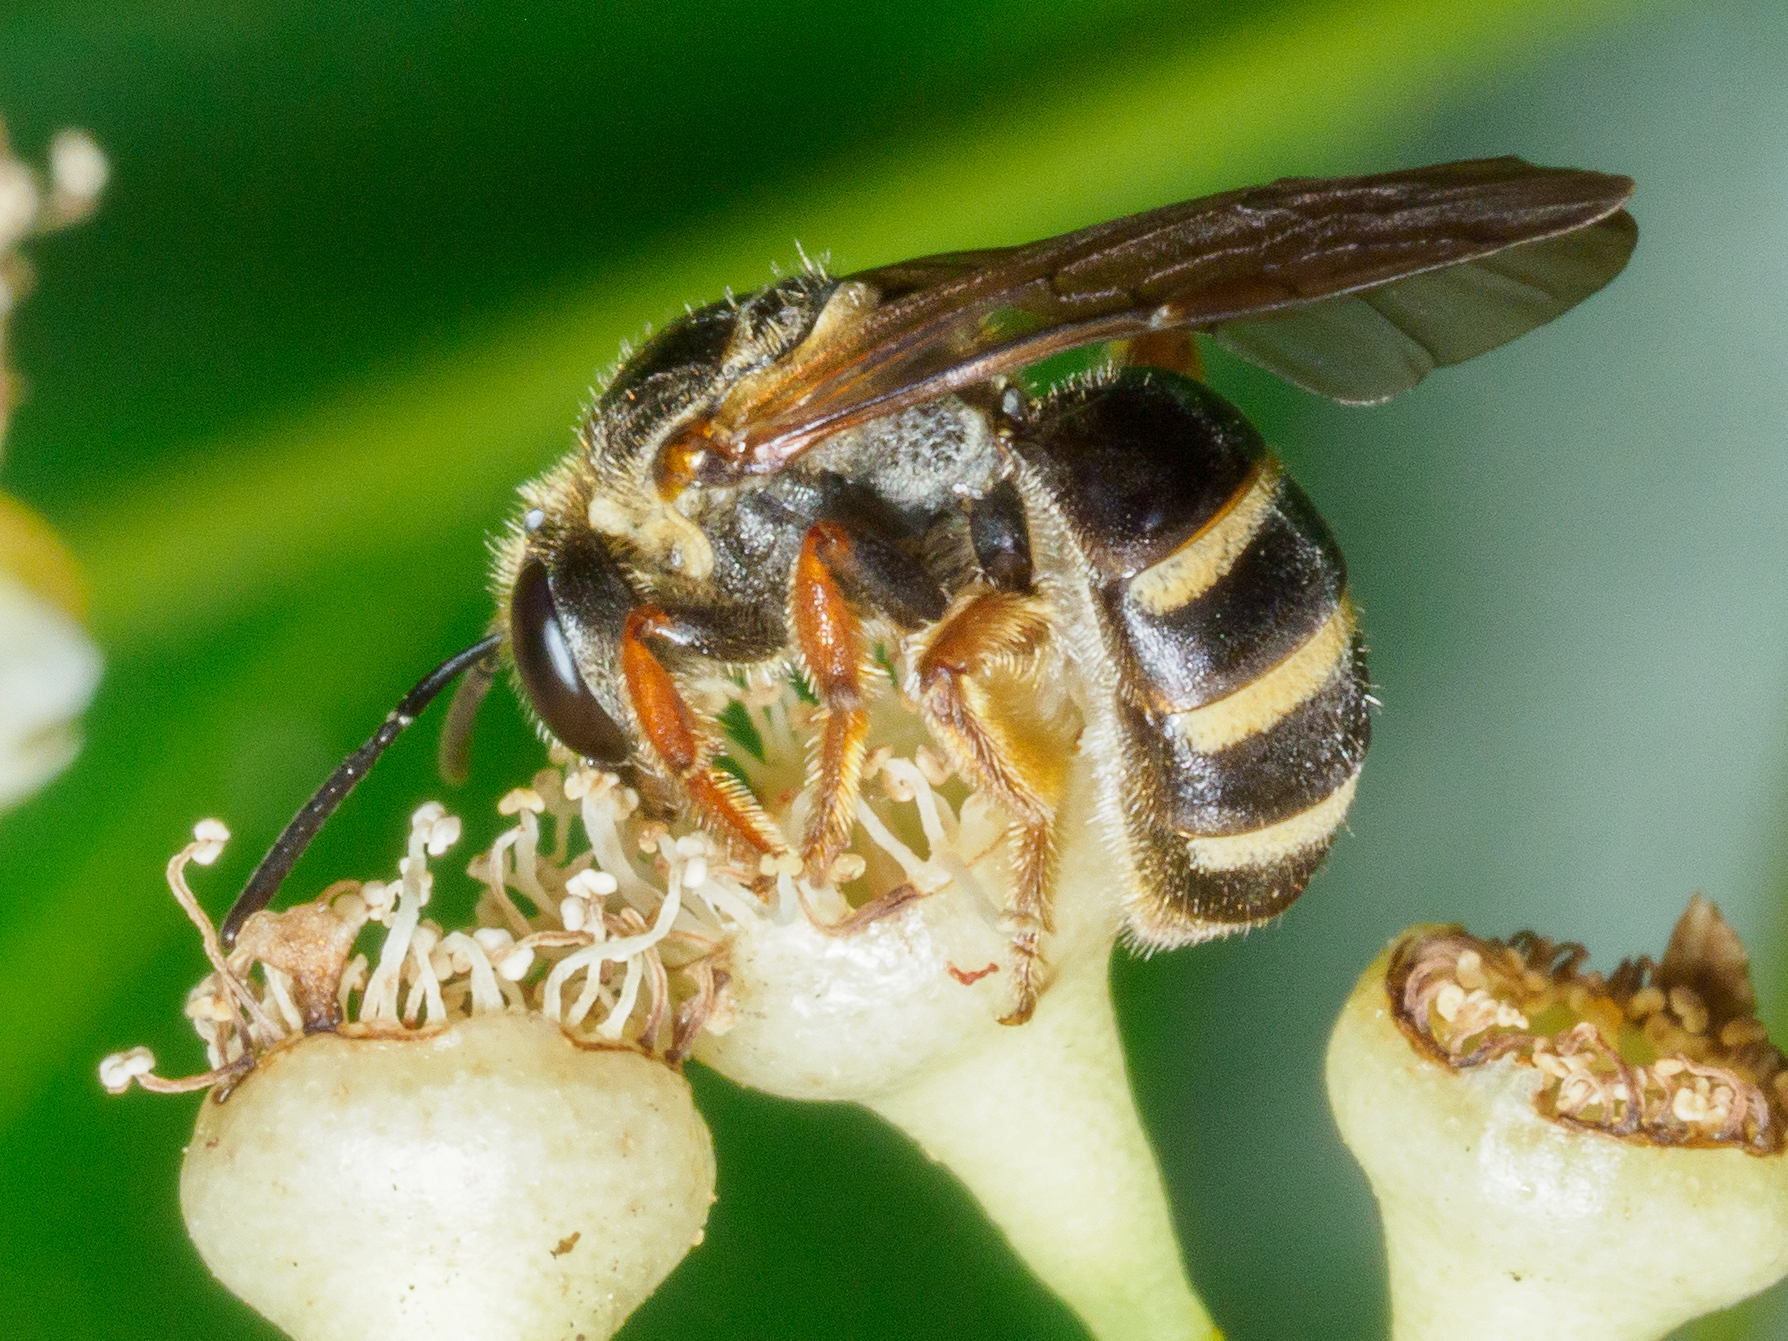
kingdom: Animalia
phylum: Arthropoda
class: Insecta
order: Hymenoptera
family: Halictidae
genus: Lasioglossum
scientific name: Lasioglossum bicingulatum
